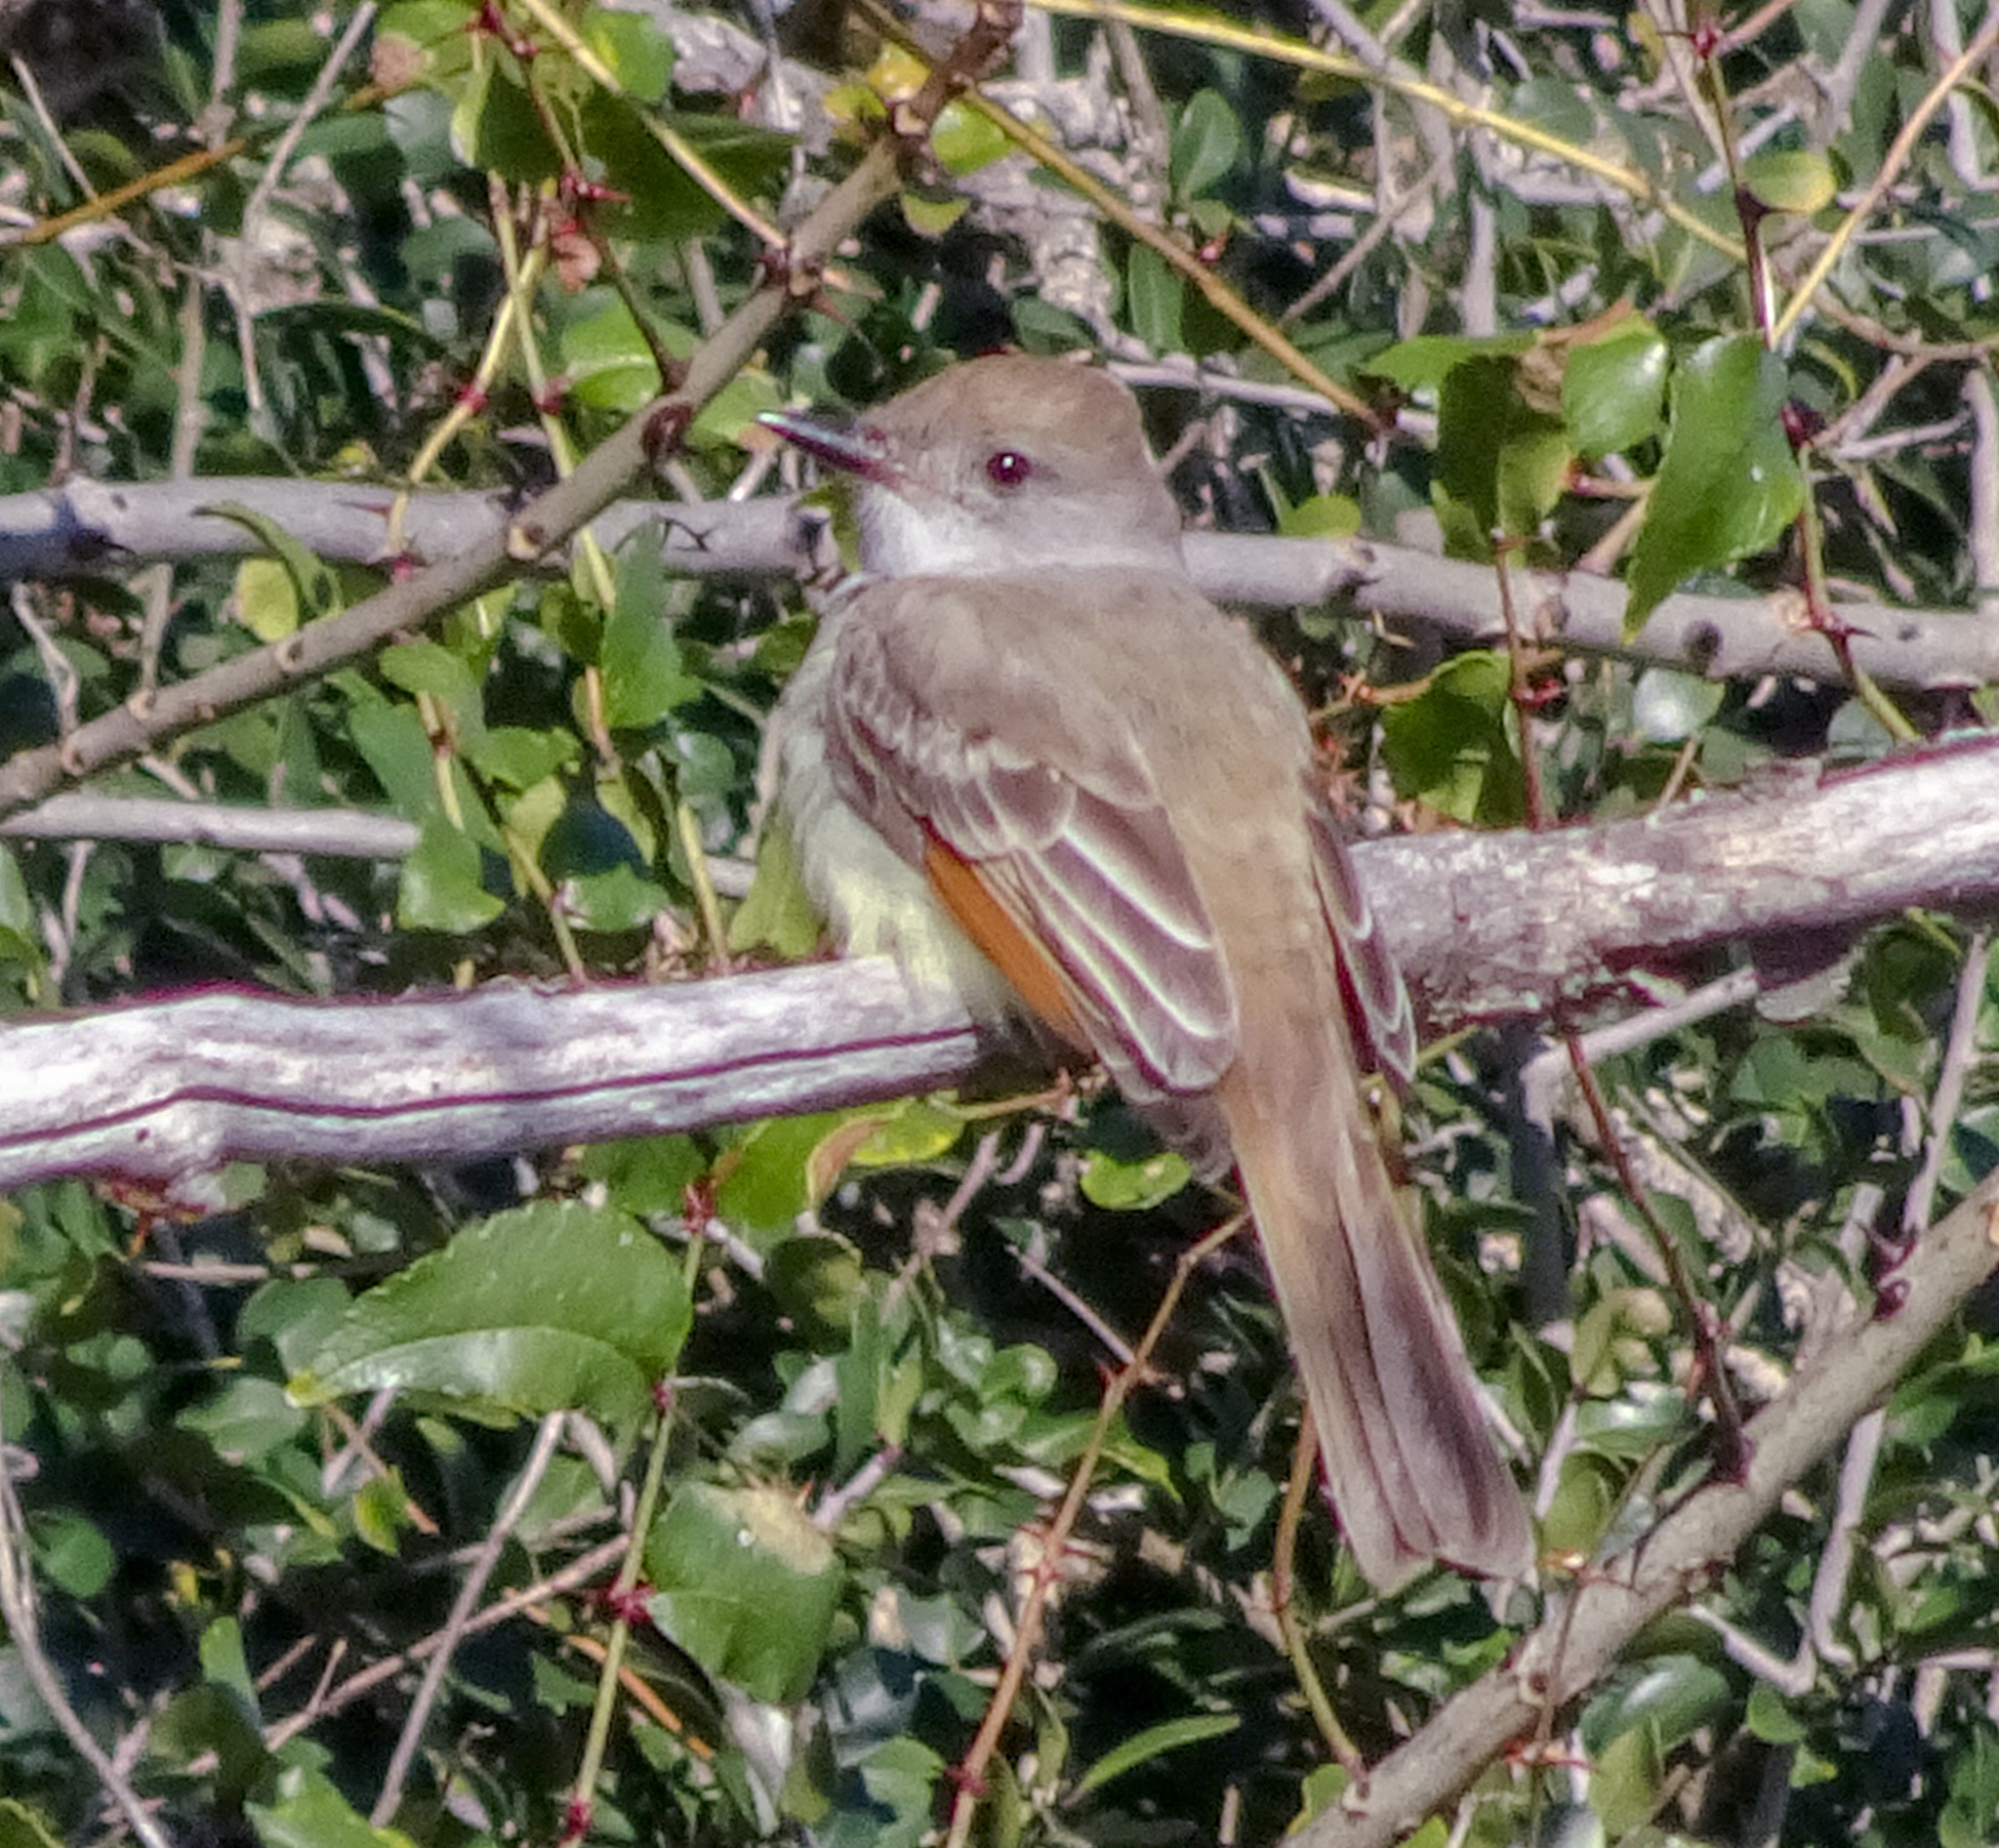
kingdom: Animalia
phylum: Chordata
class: Aves
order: Passeriformes
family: Tyrannidae
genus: Myiarchus
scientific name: Myiarchus cinerascens
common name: Ash-throated flycatcher
